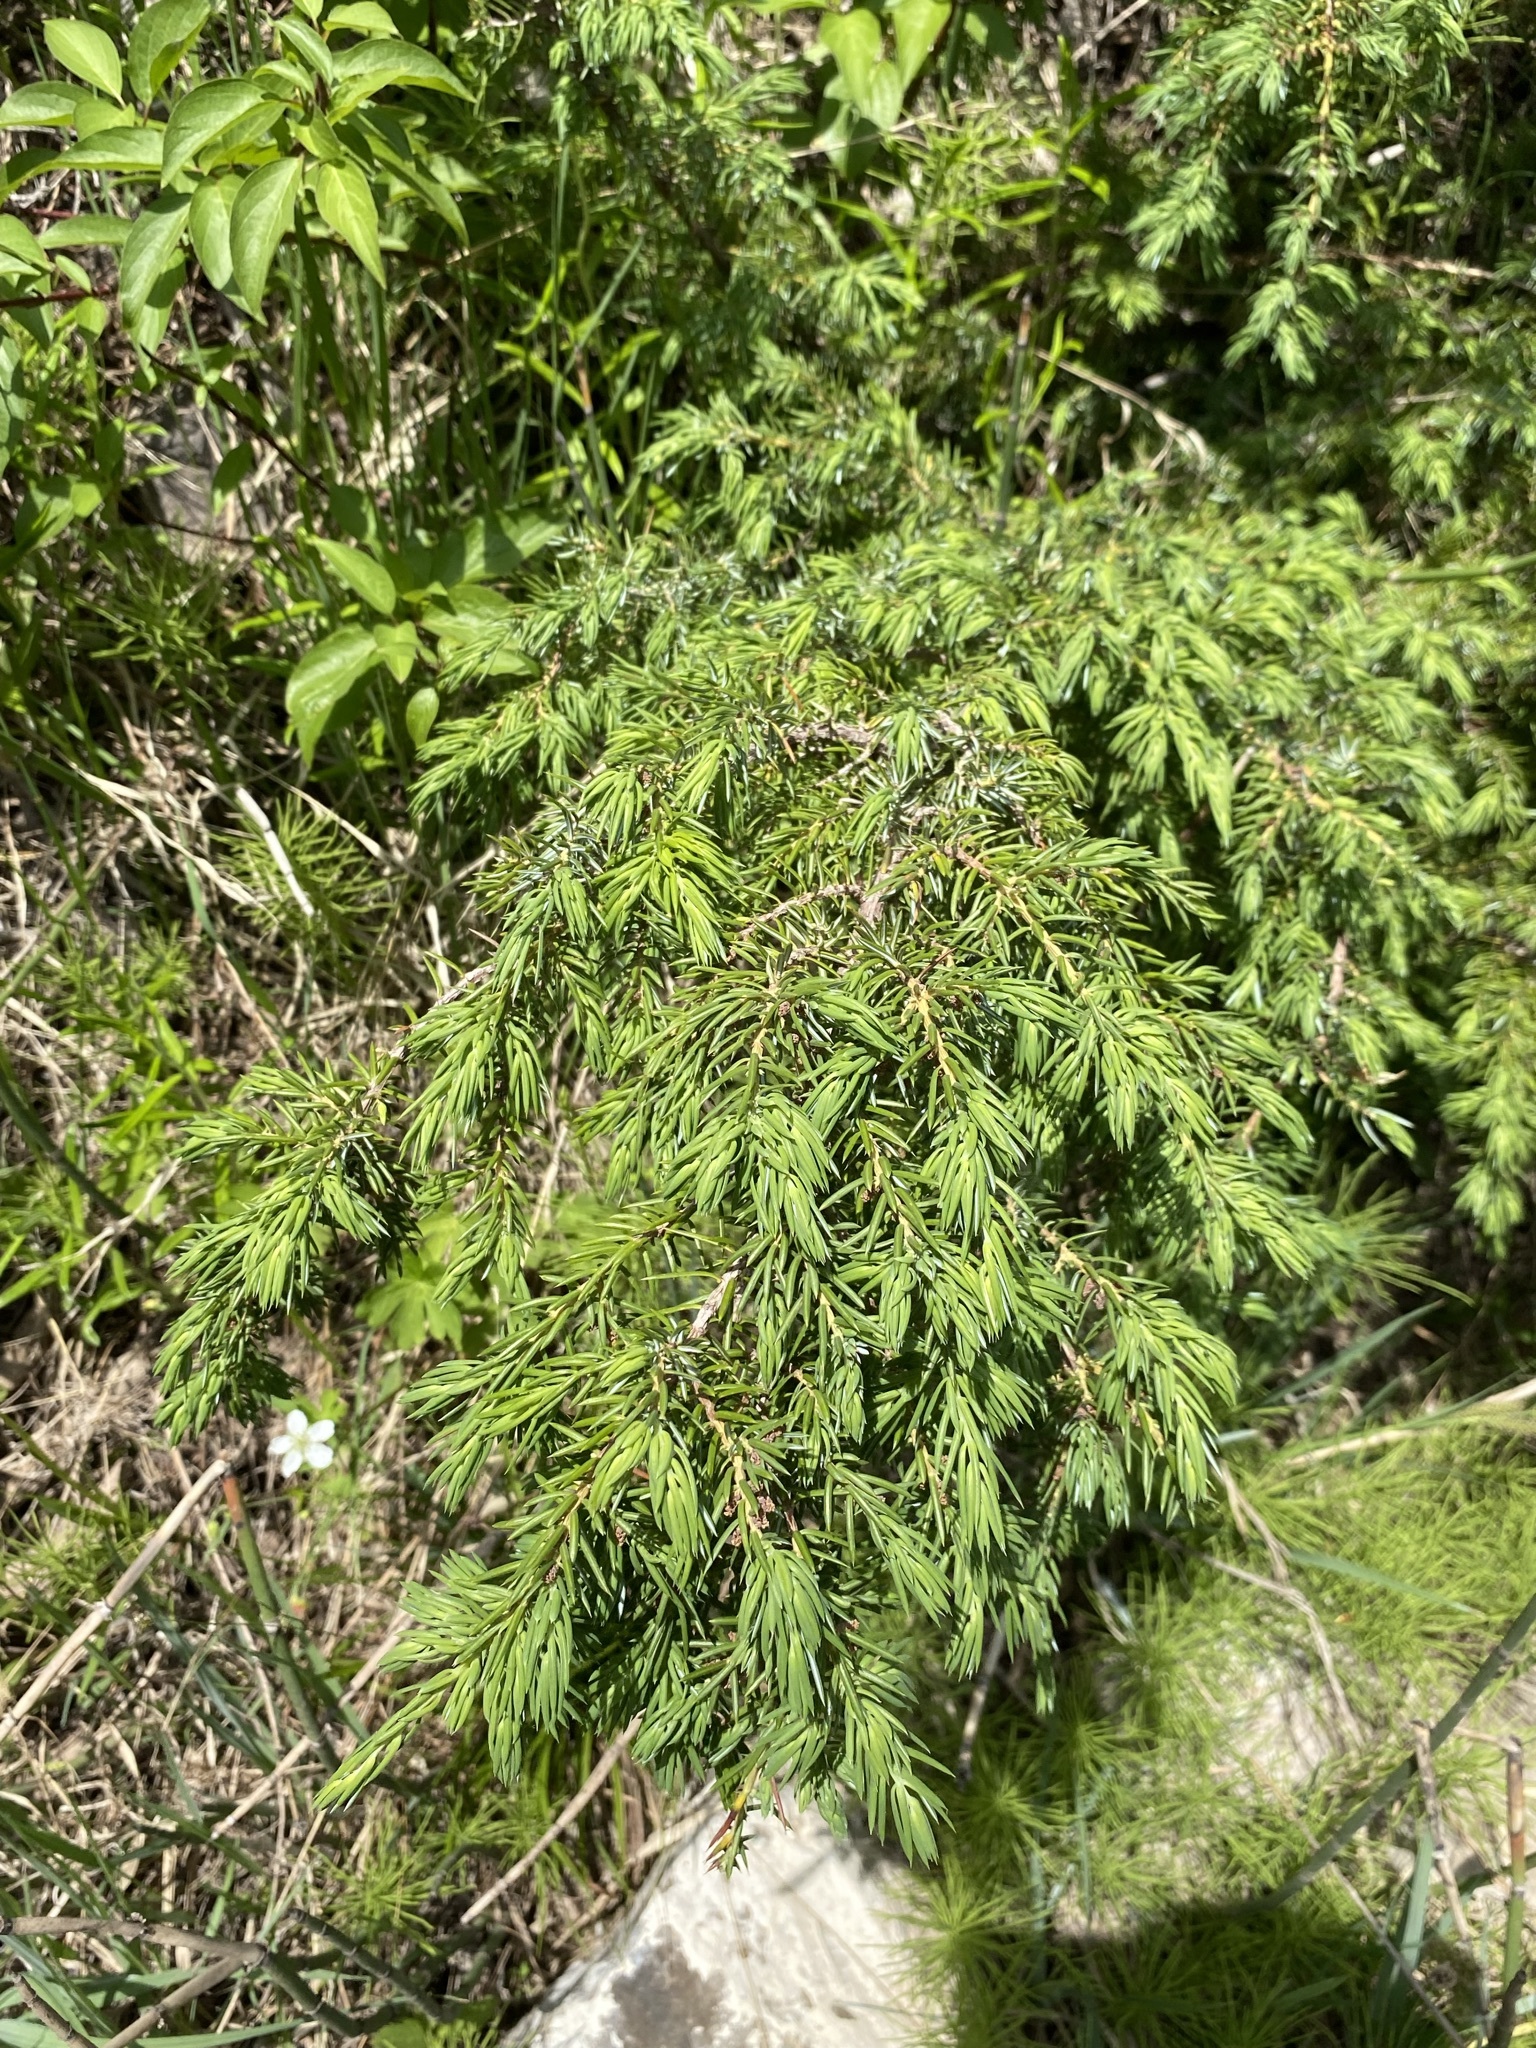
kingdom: Plantae
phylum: Tracheophyta
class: Pinopsida
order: Pinales
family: Cupressaceae
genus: Juniperus
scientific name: Juniperus communis
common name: Common juniper
